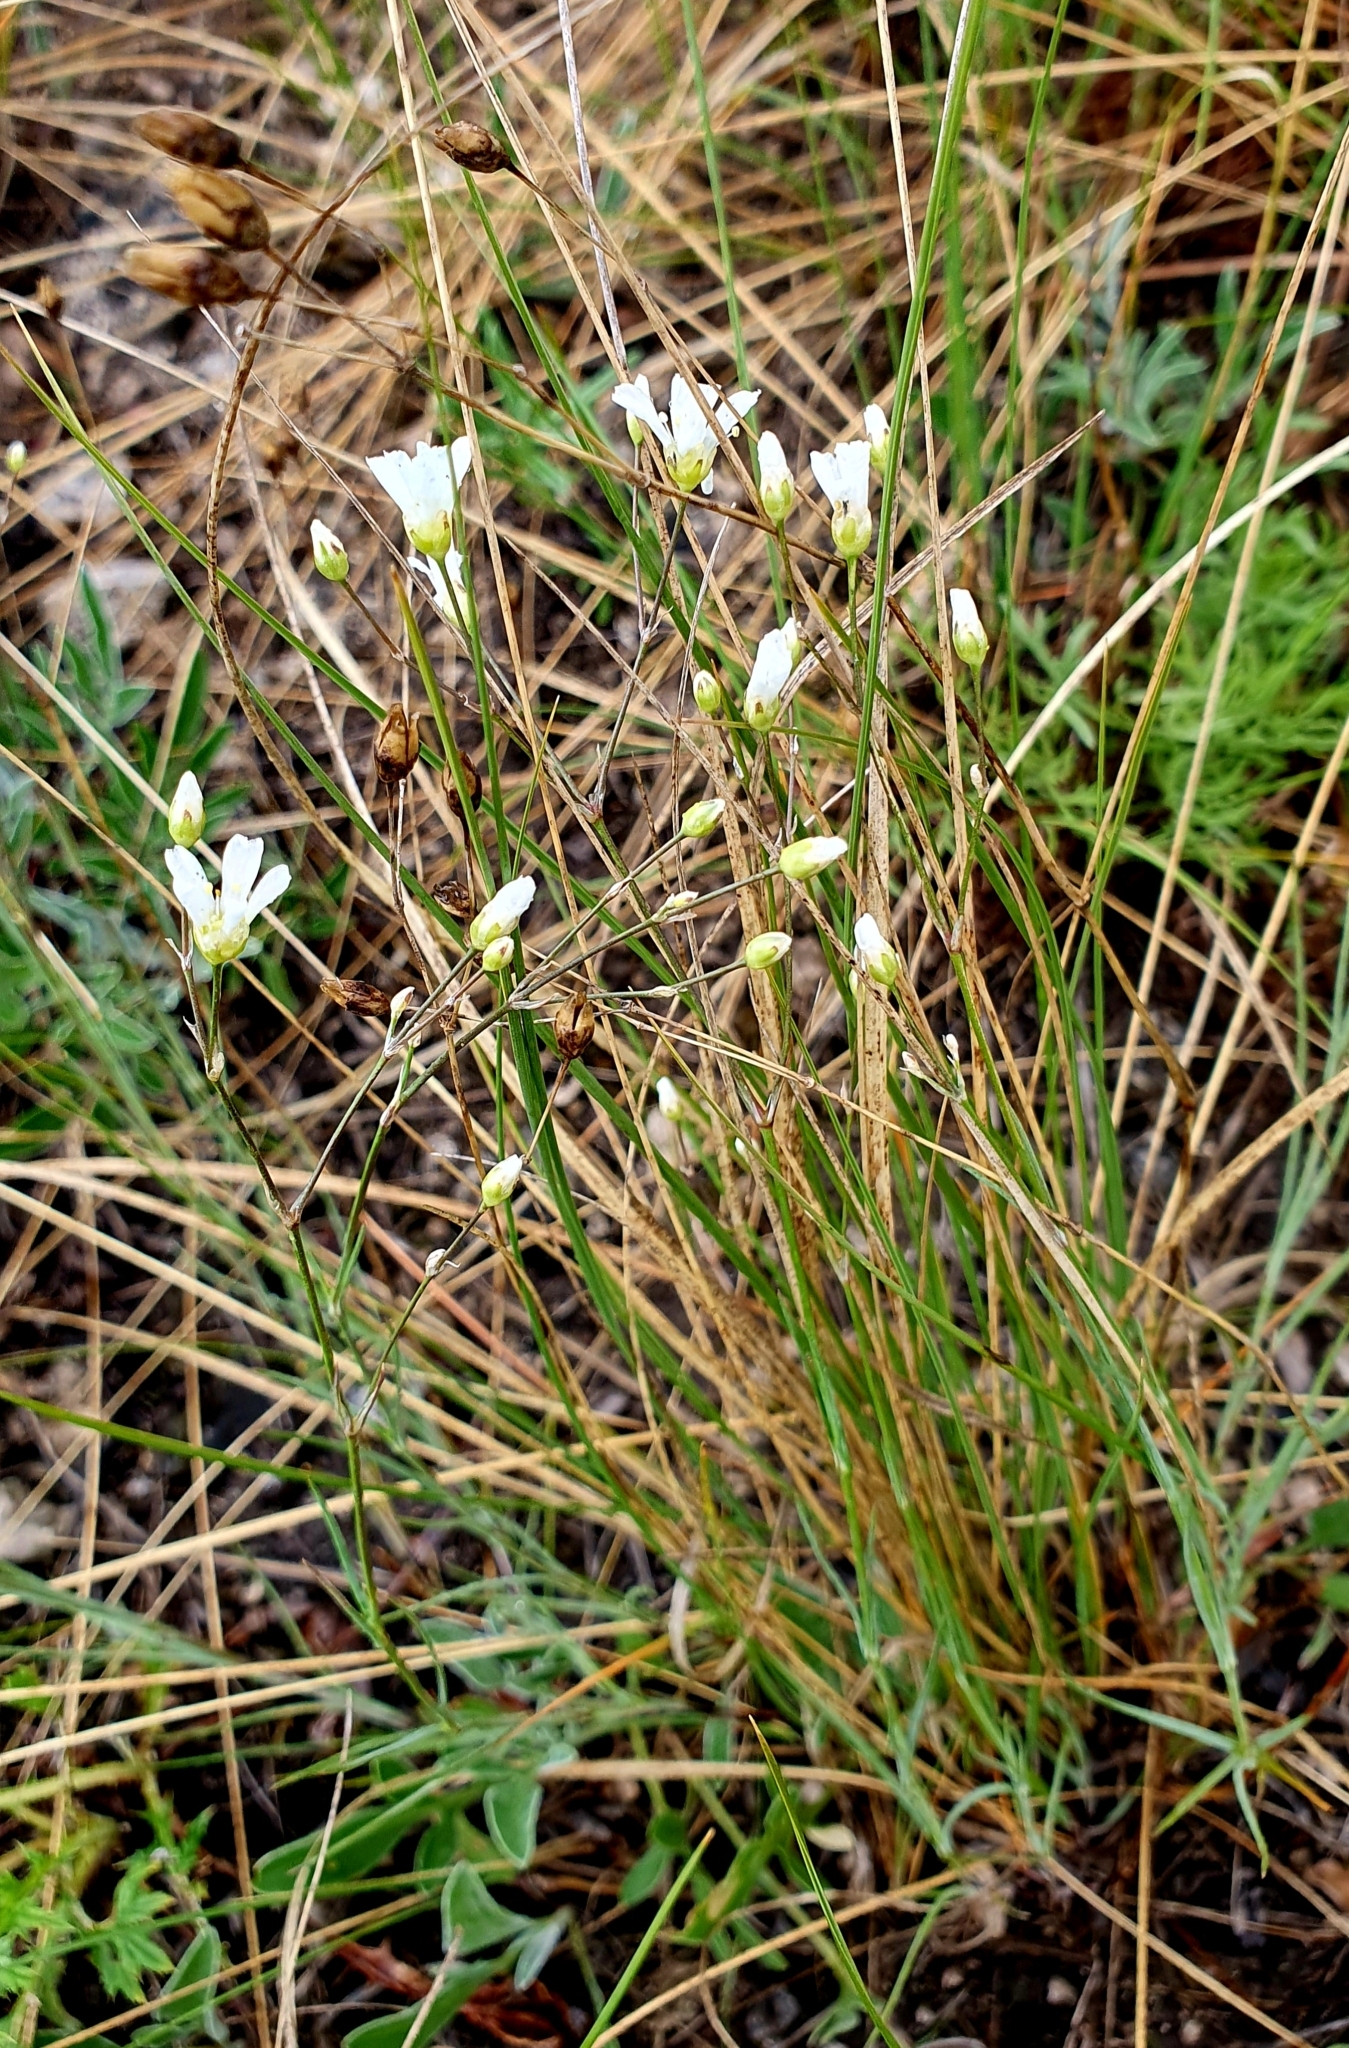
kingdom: Plantae
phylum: Tracheophyta
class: Magnoliopsida
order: Caryophyllales
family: Caryophyllaceae
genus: Eremogone
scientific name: Eremogone saxatilis
